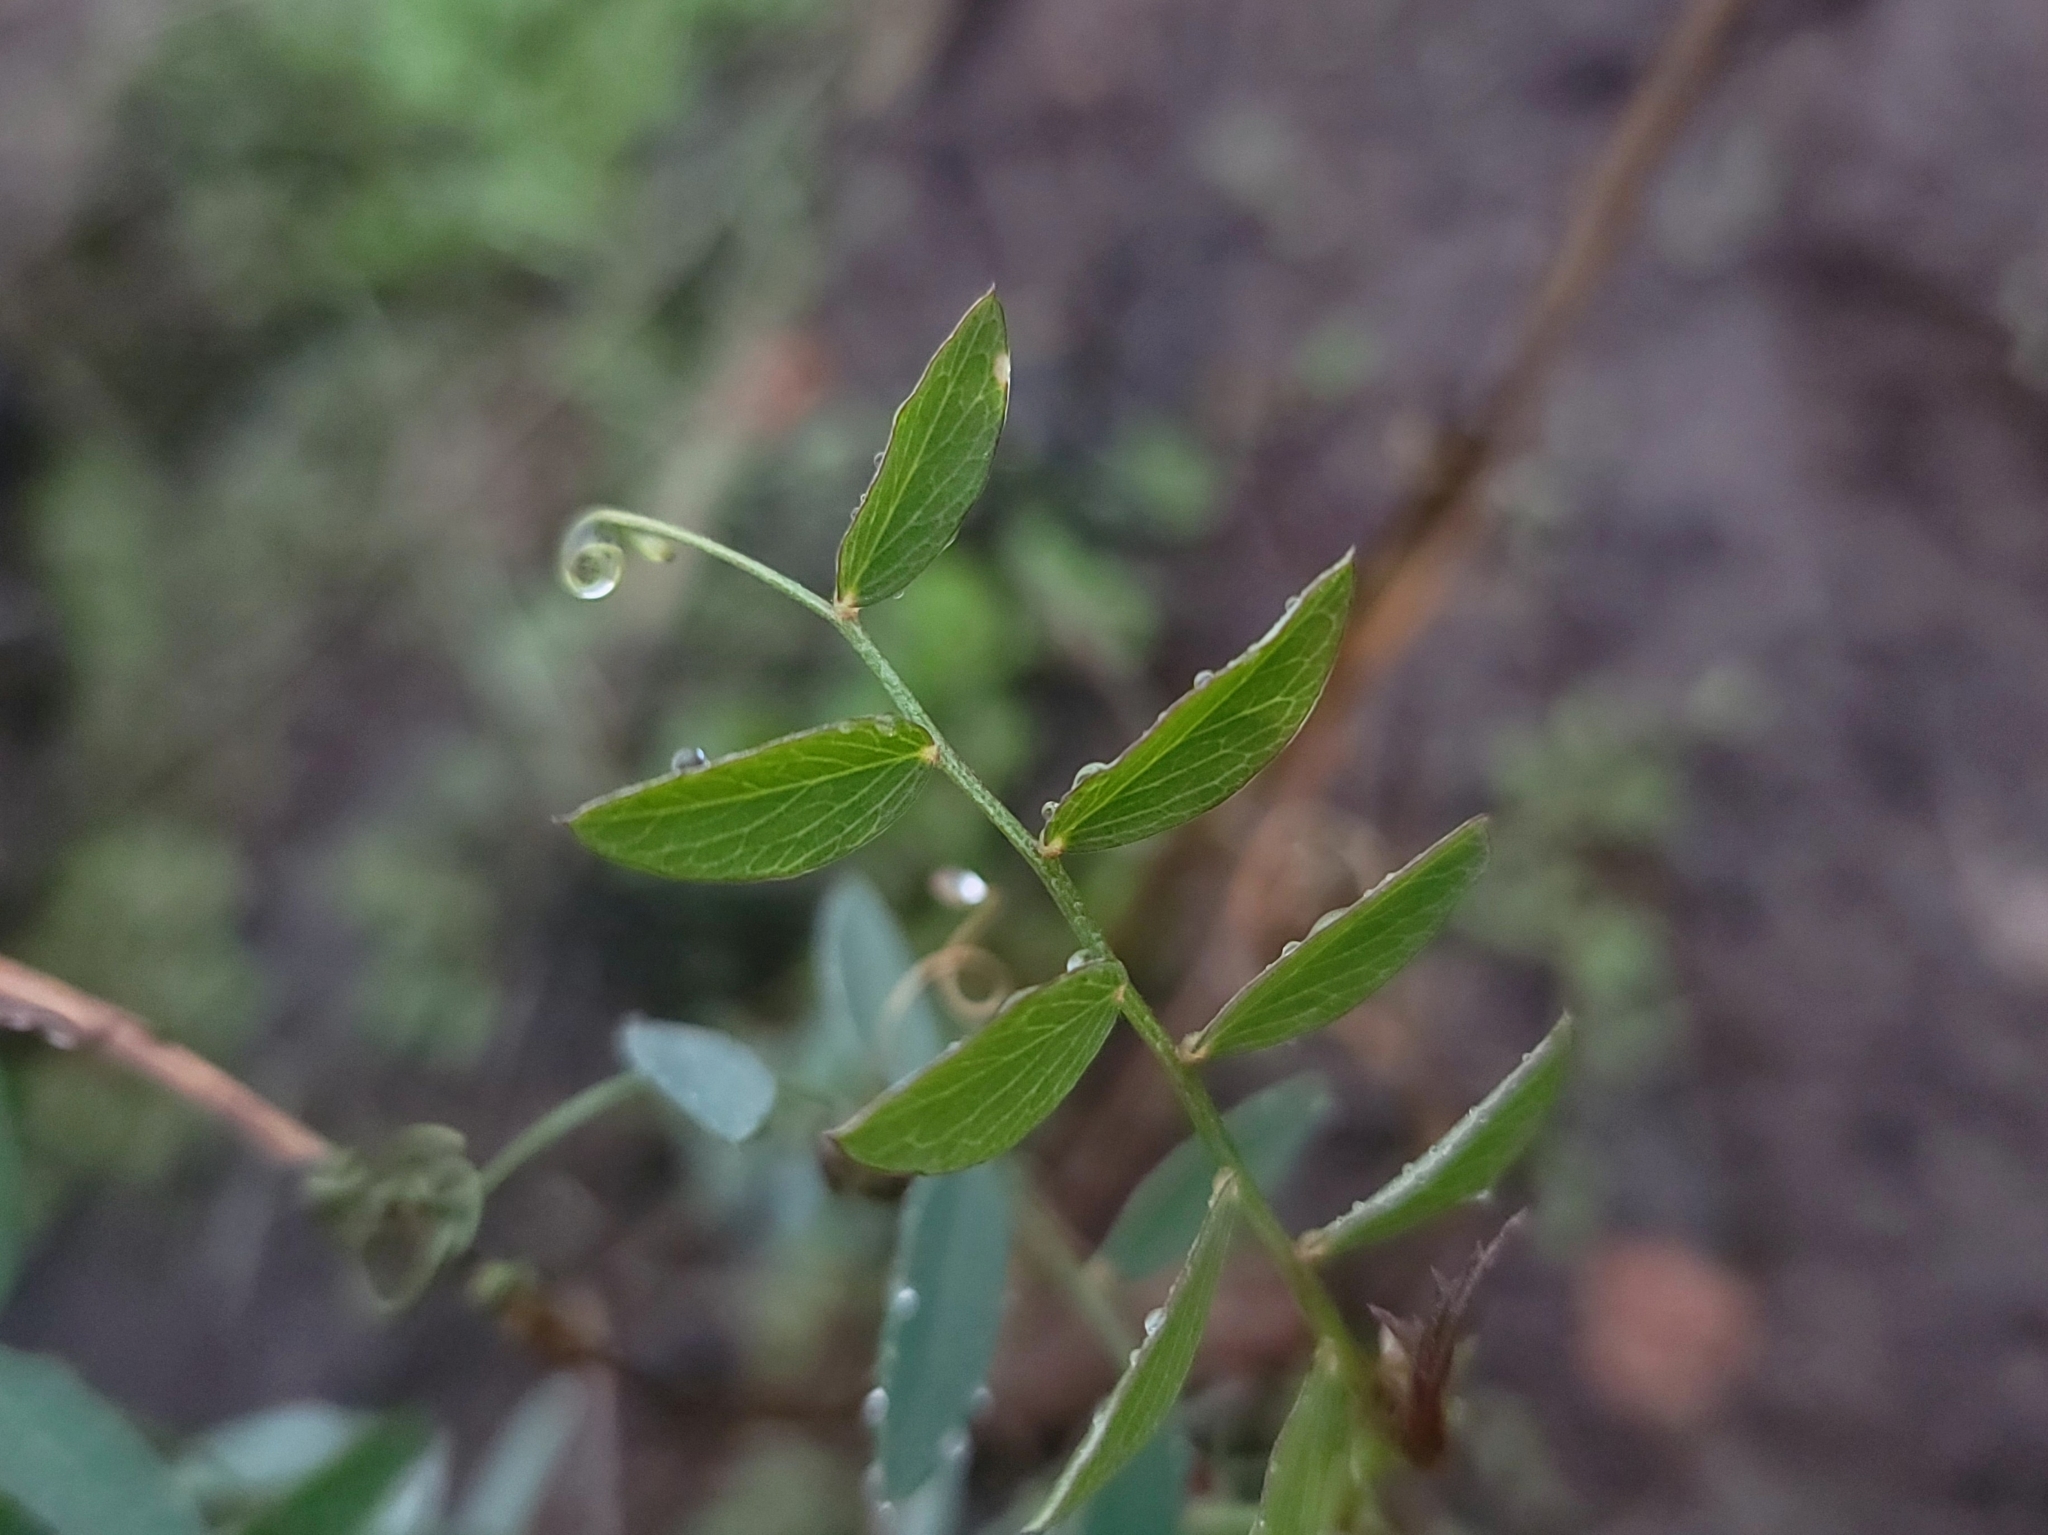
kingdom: Plantae
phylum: Tracheophyta
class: Magnoliopsida
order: Fabales
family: Fabaceae
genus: Lathyrus
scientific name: Lathyrus vestitus
